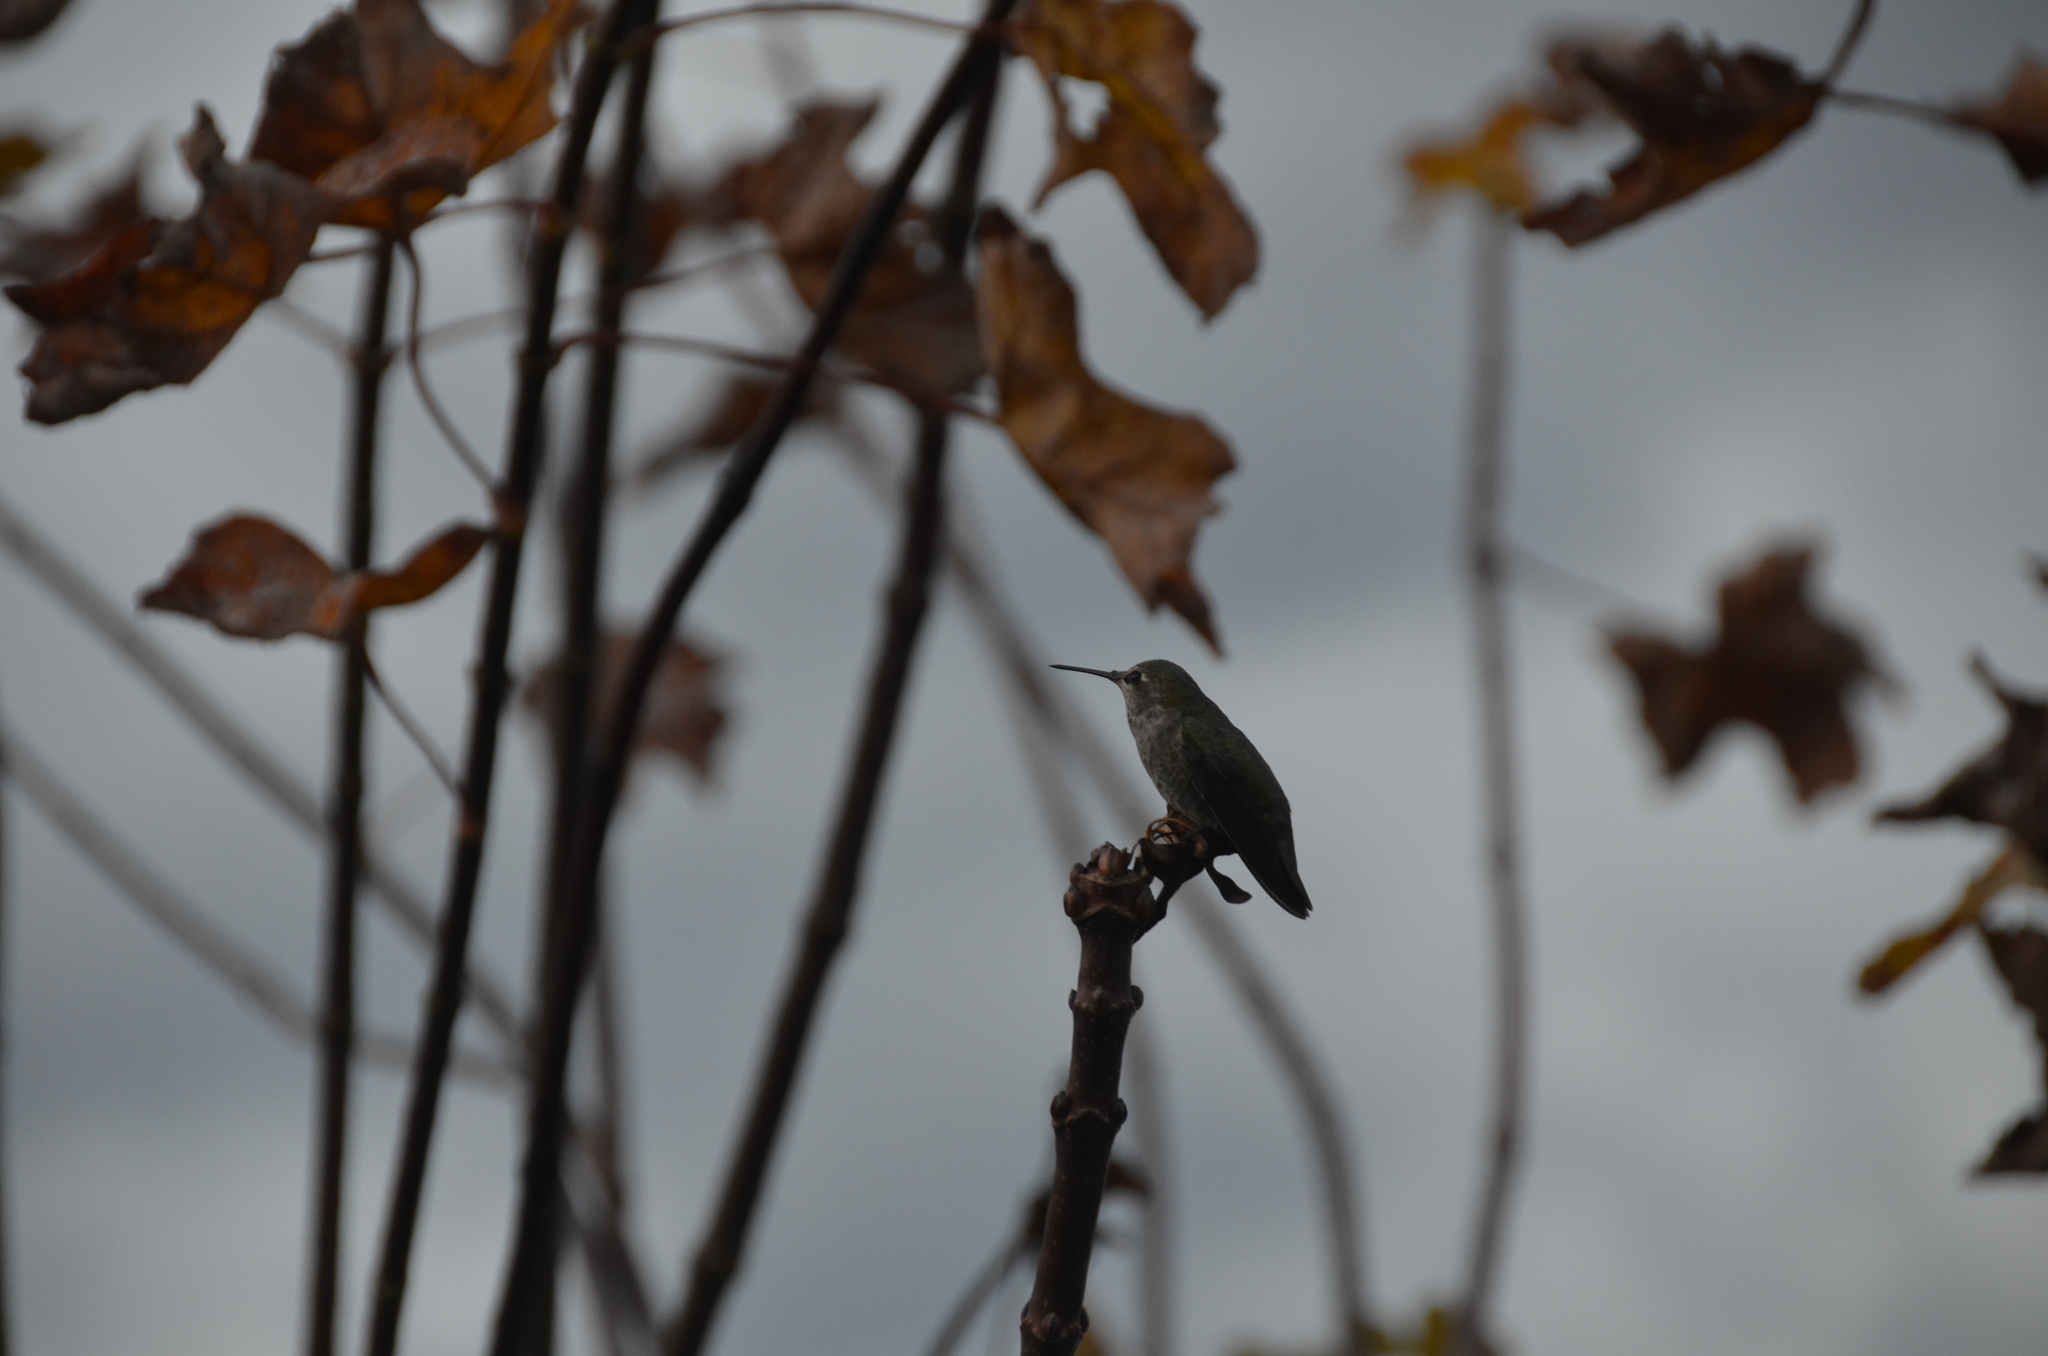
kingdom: Animalia
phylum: Chordata
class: Aves
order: Apodiformes
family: Trochilidae
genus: Calypte
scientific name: Calypte anna
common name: Anna's hummingbird
